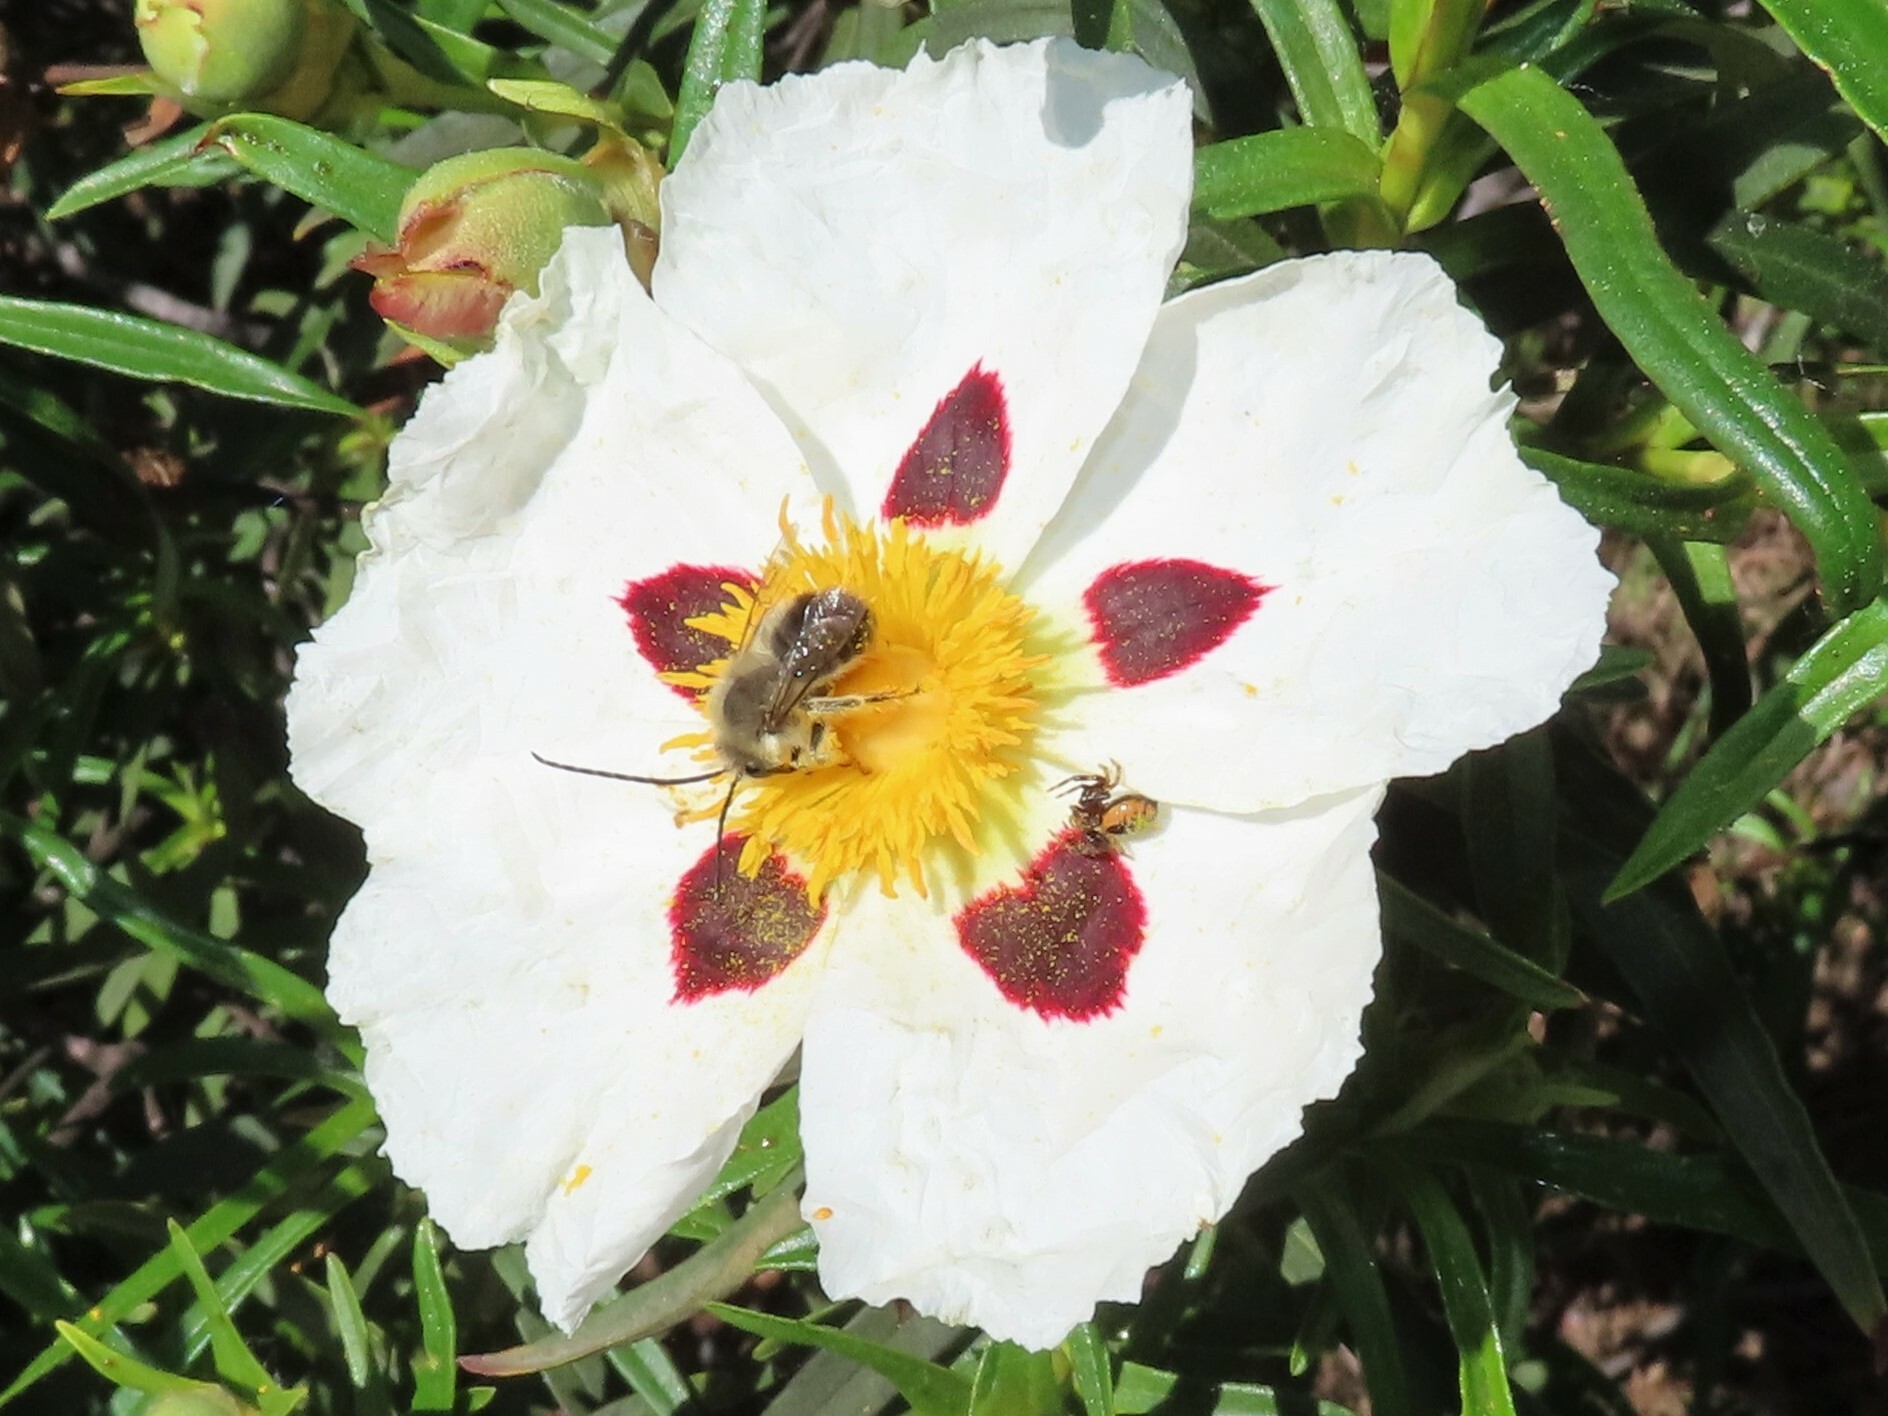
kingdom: Animalia
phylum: Arthropoda
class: Arachnida
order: Araneae
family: Thomisidae
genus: Synema
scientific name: Synema globosum
